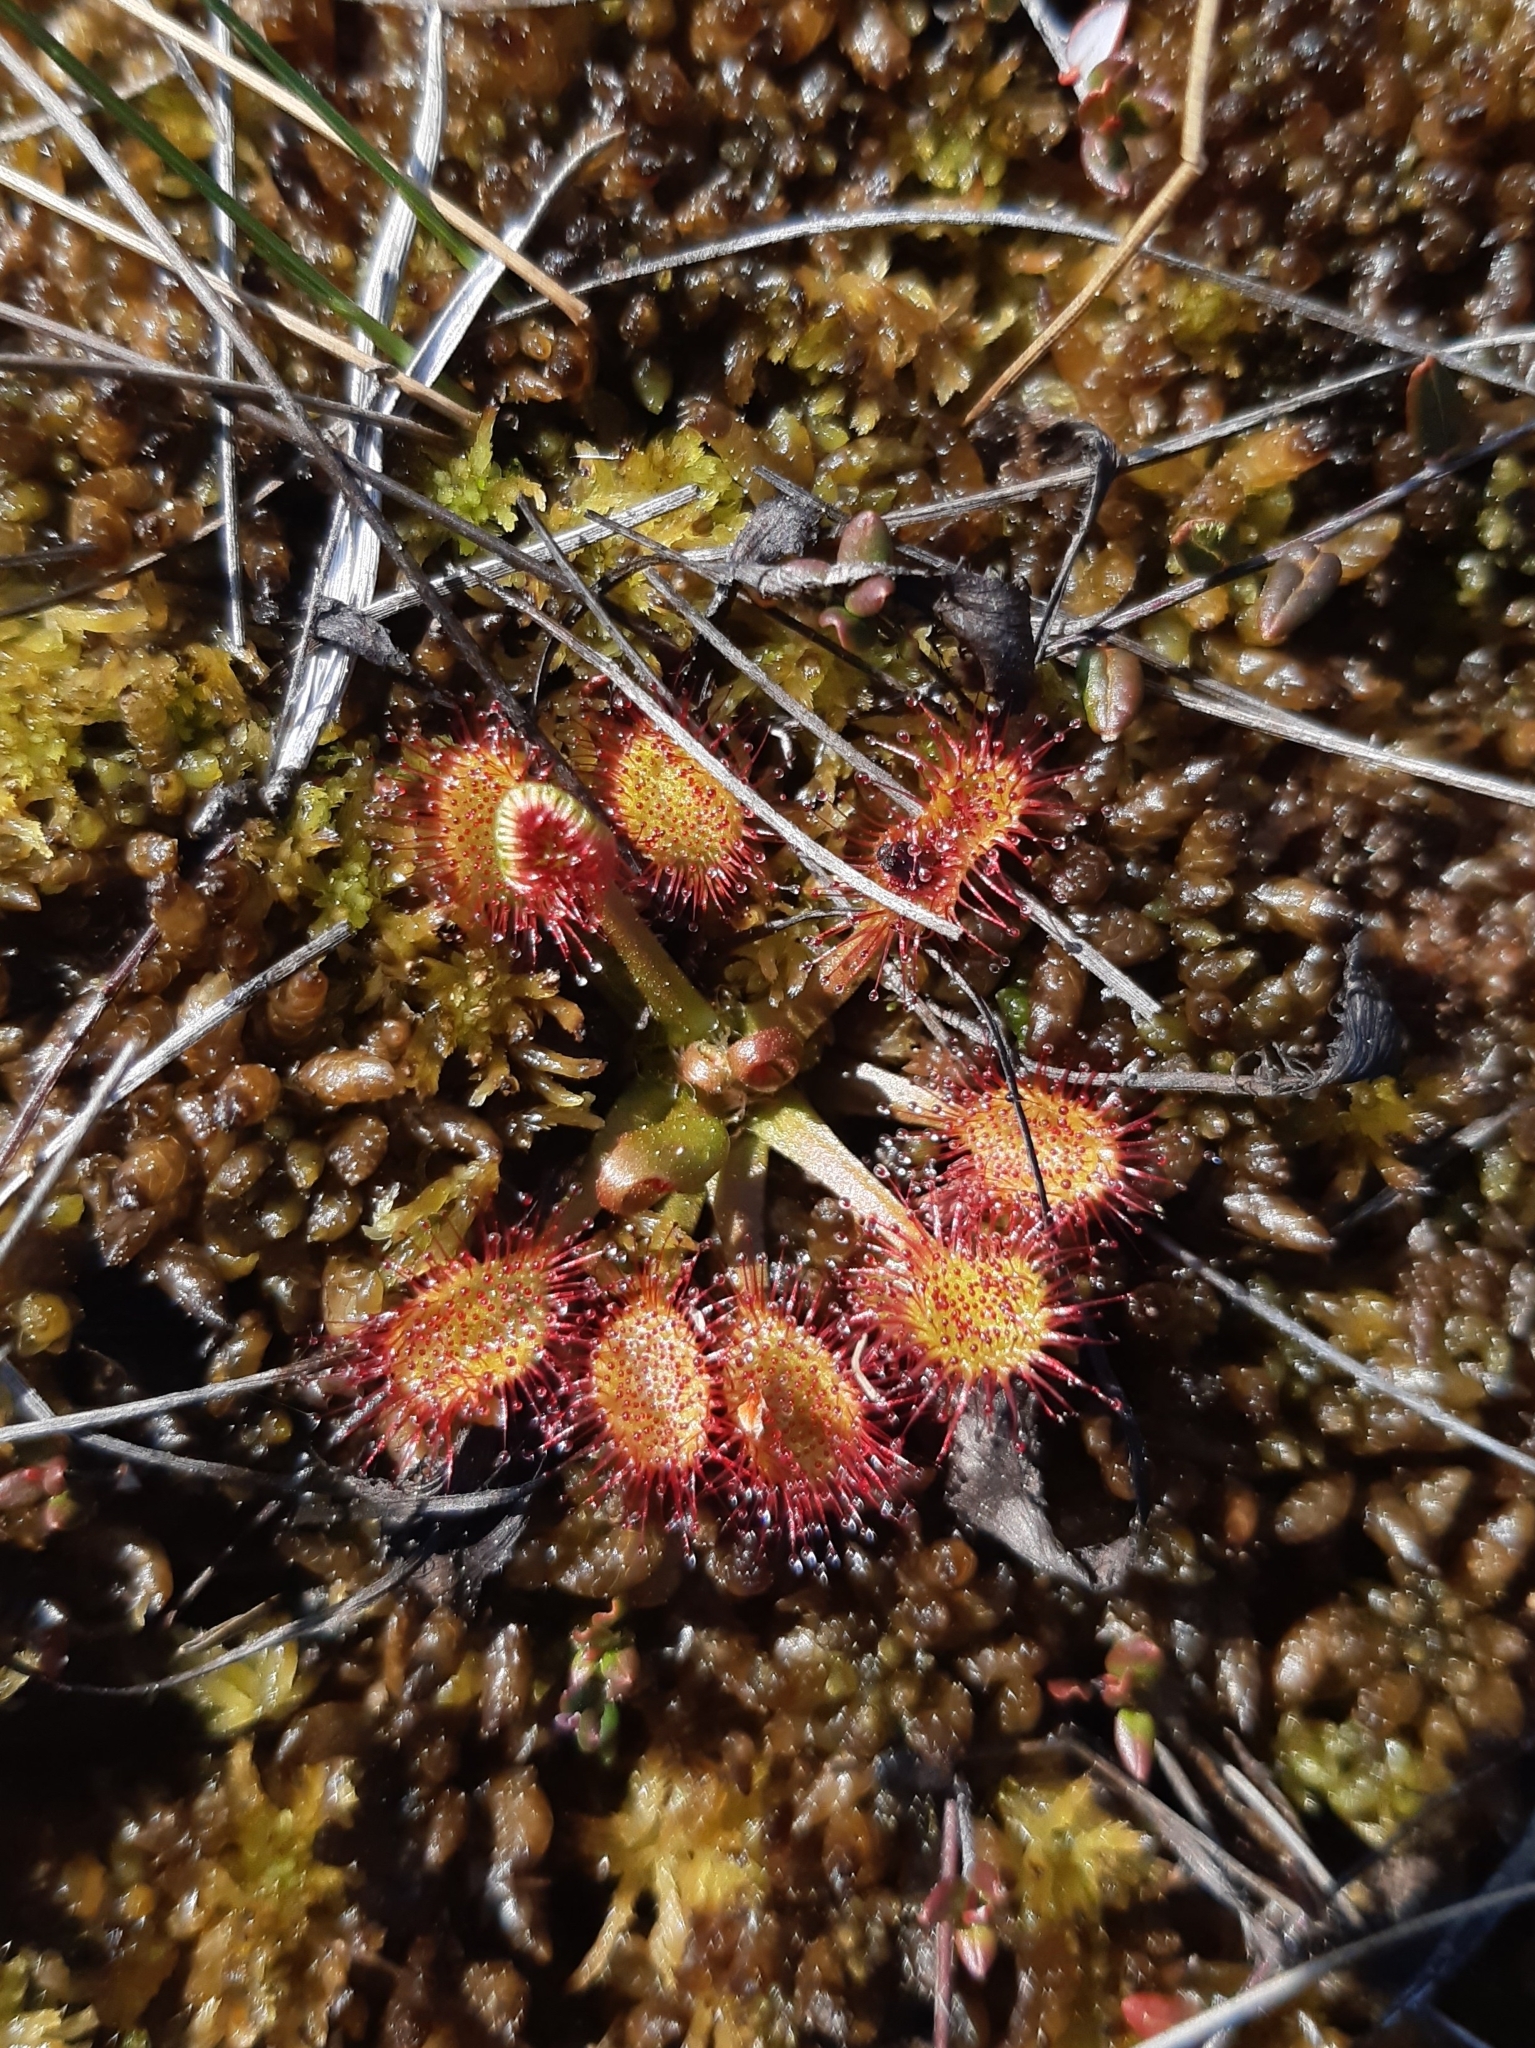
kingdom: Plantae
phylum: Tracheophyta
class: Magnoliopsida
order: Caryophyllales
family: Droseraceae
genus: Drosera
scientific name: Drosera rotundifolia
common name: Round-leaved sundew
